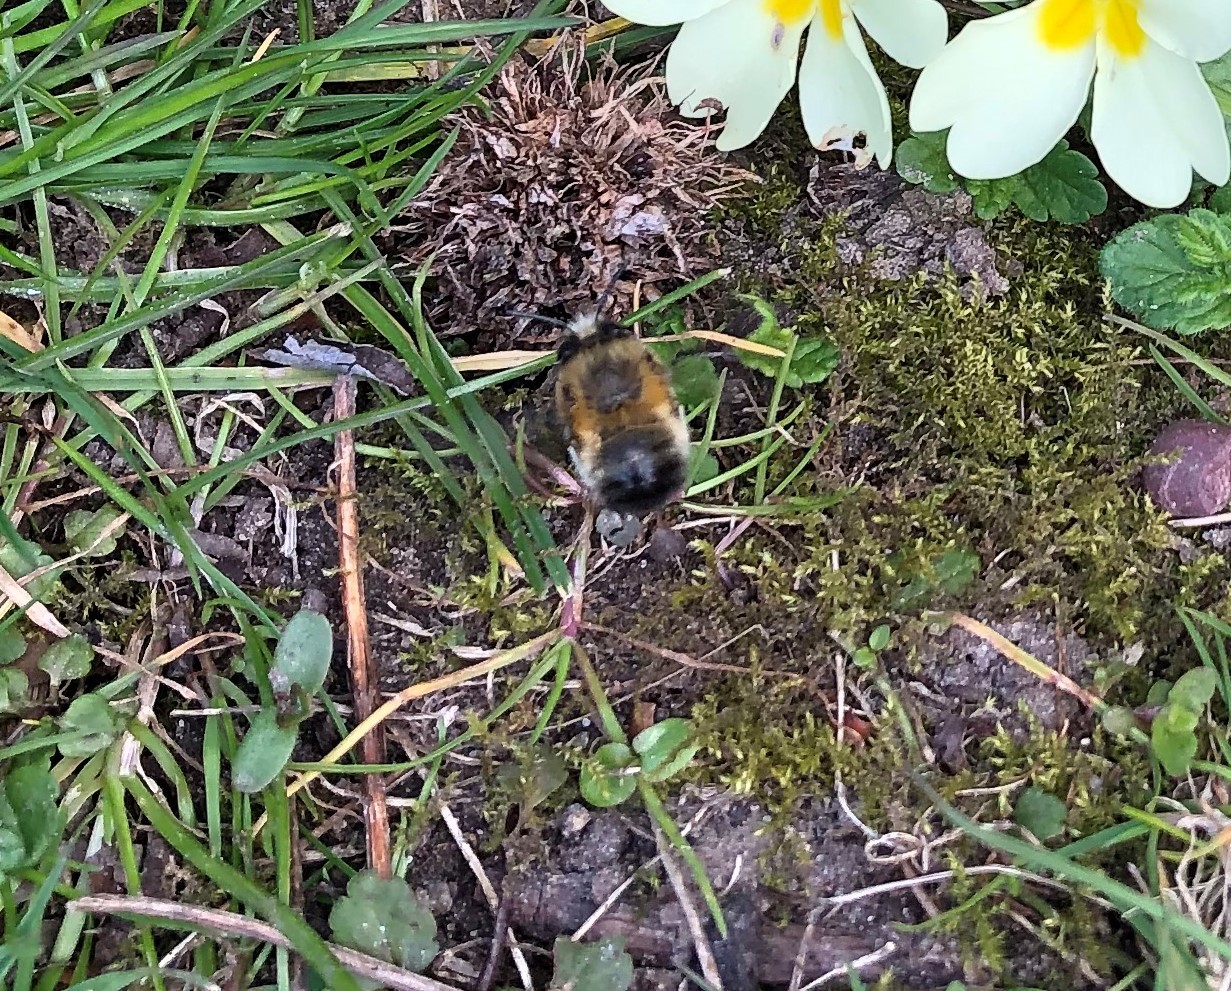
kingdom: Animalia
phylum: Arthropoda
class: Insecta
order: Hymenoptera
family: Apidae
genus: Anthophora
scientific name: Anthophora plumipes
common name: Hairy-footed flower bee
